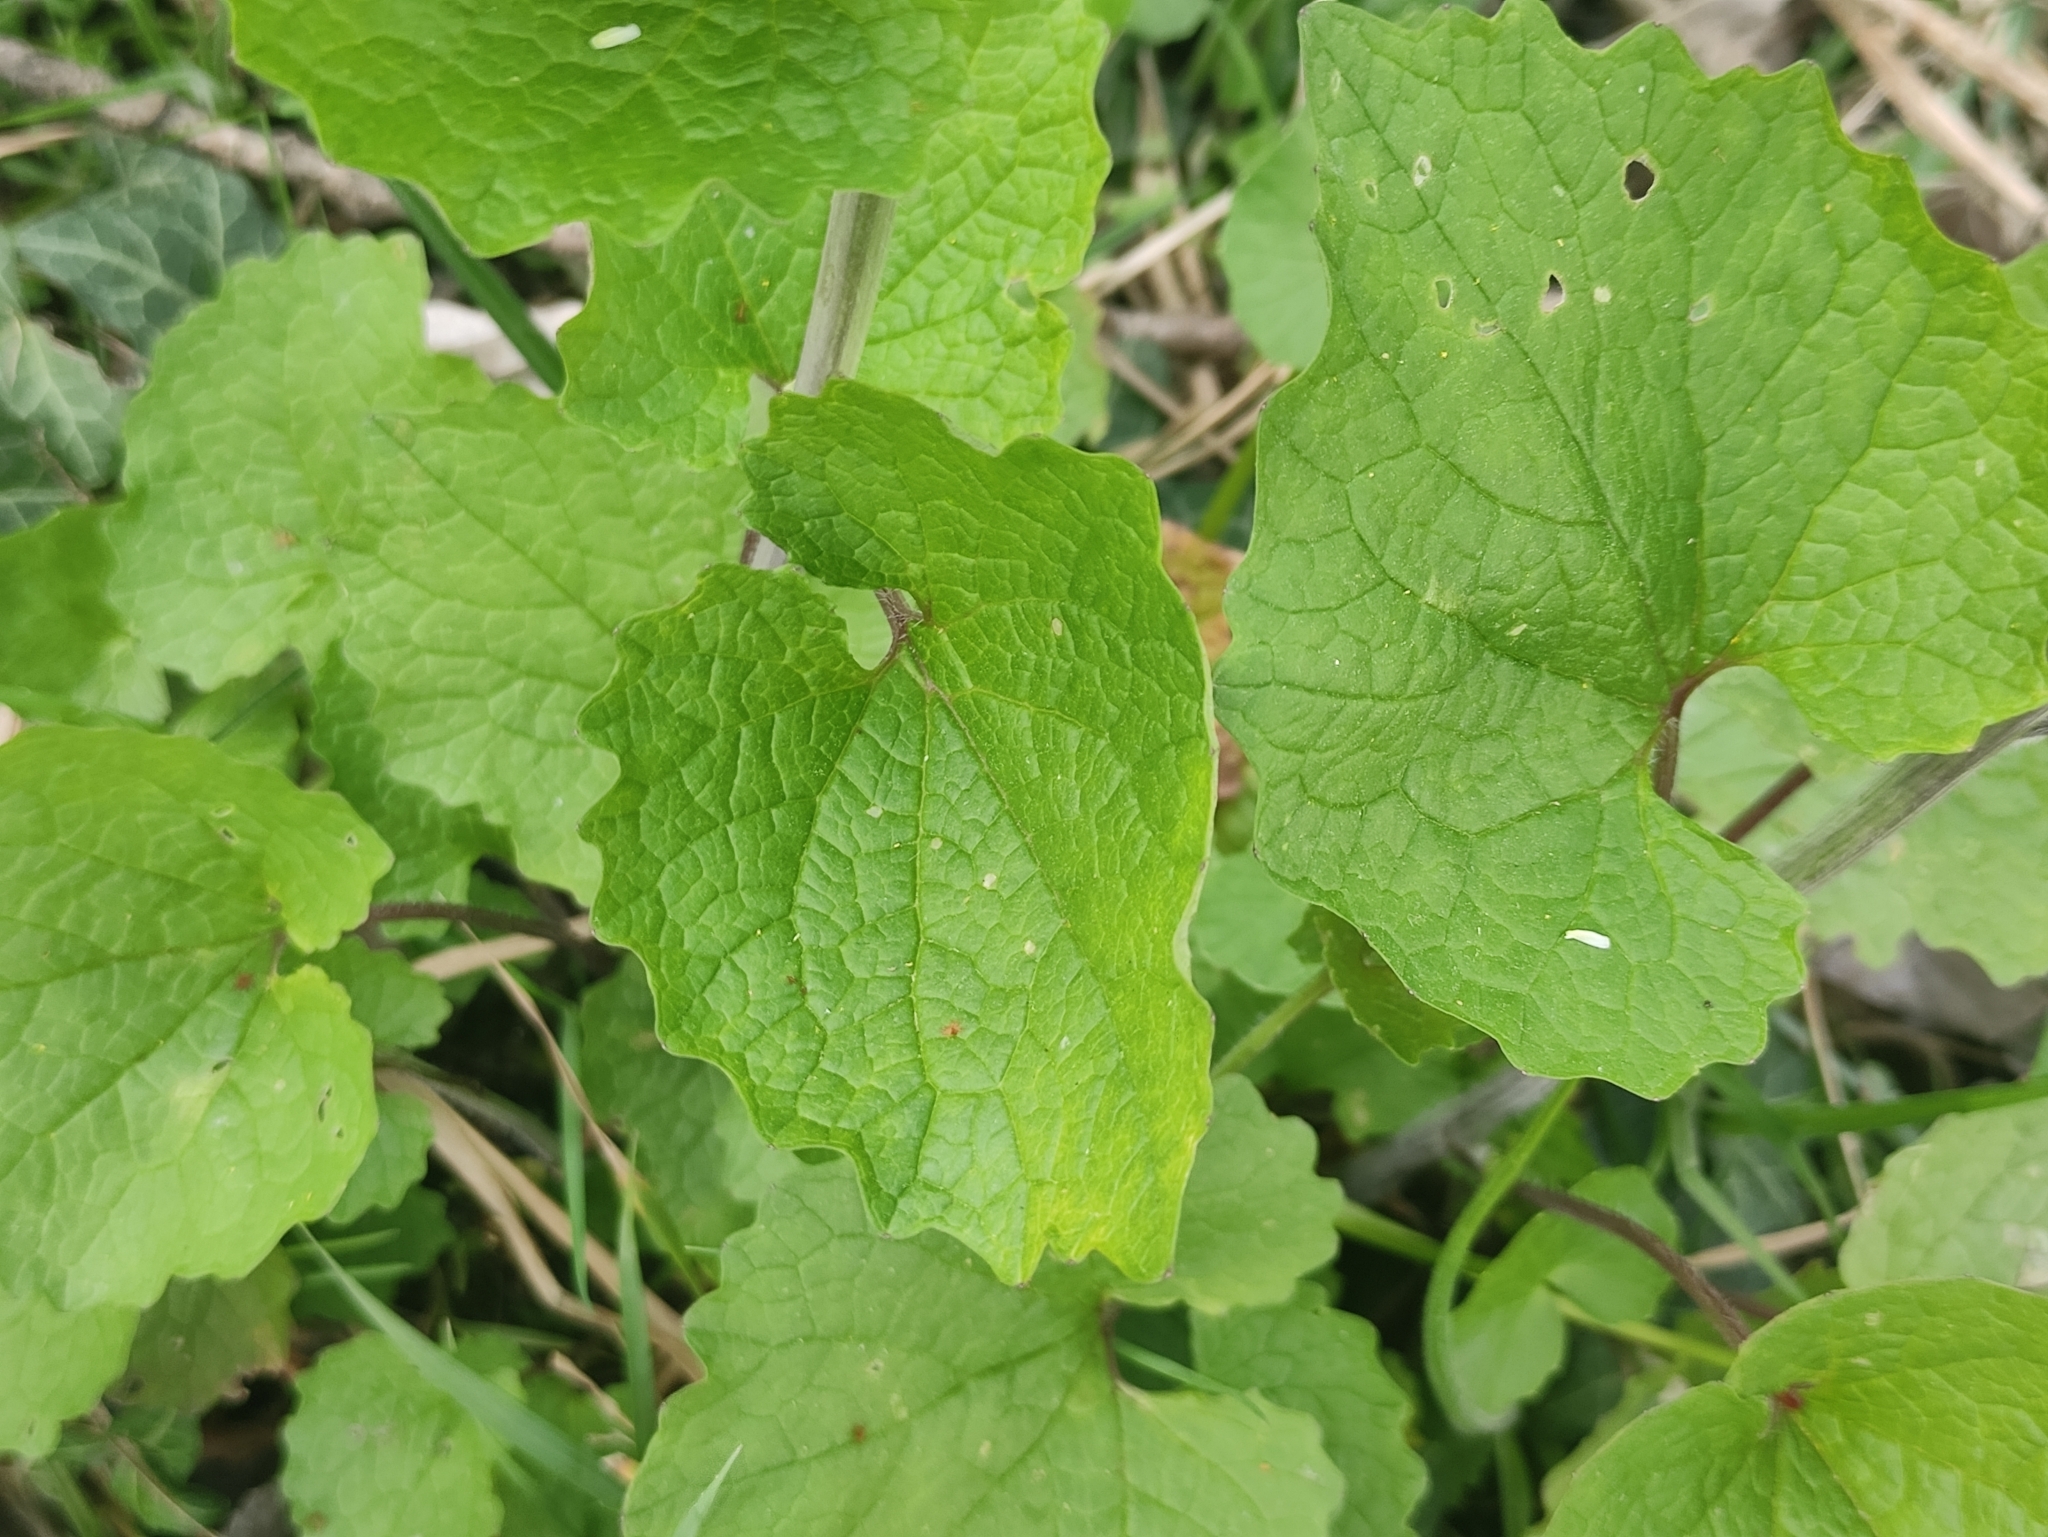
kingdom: Plantae
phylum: Tracheophyta
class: Magnoliopsida
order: Brassicales
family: Brassicaceae
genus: Alliaria
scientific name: Alliaria petiolata
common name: Garlic mustard
